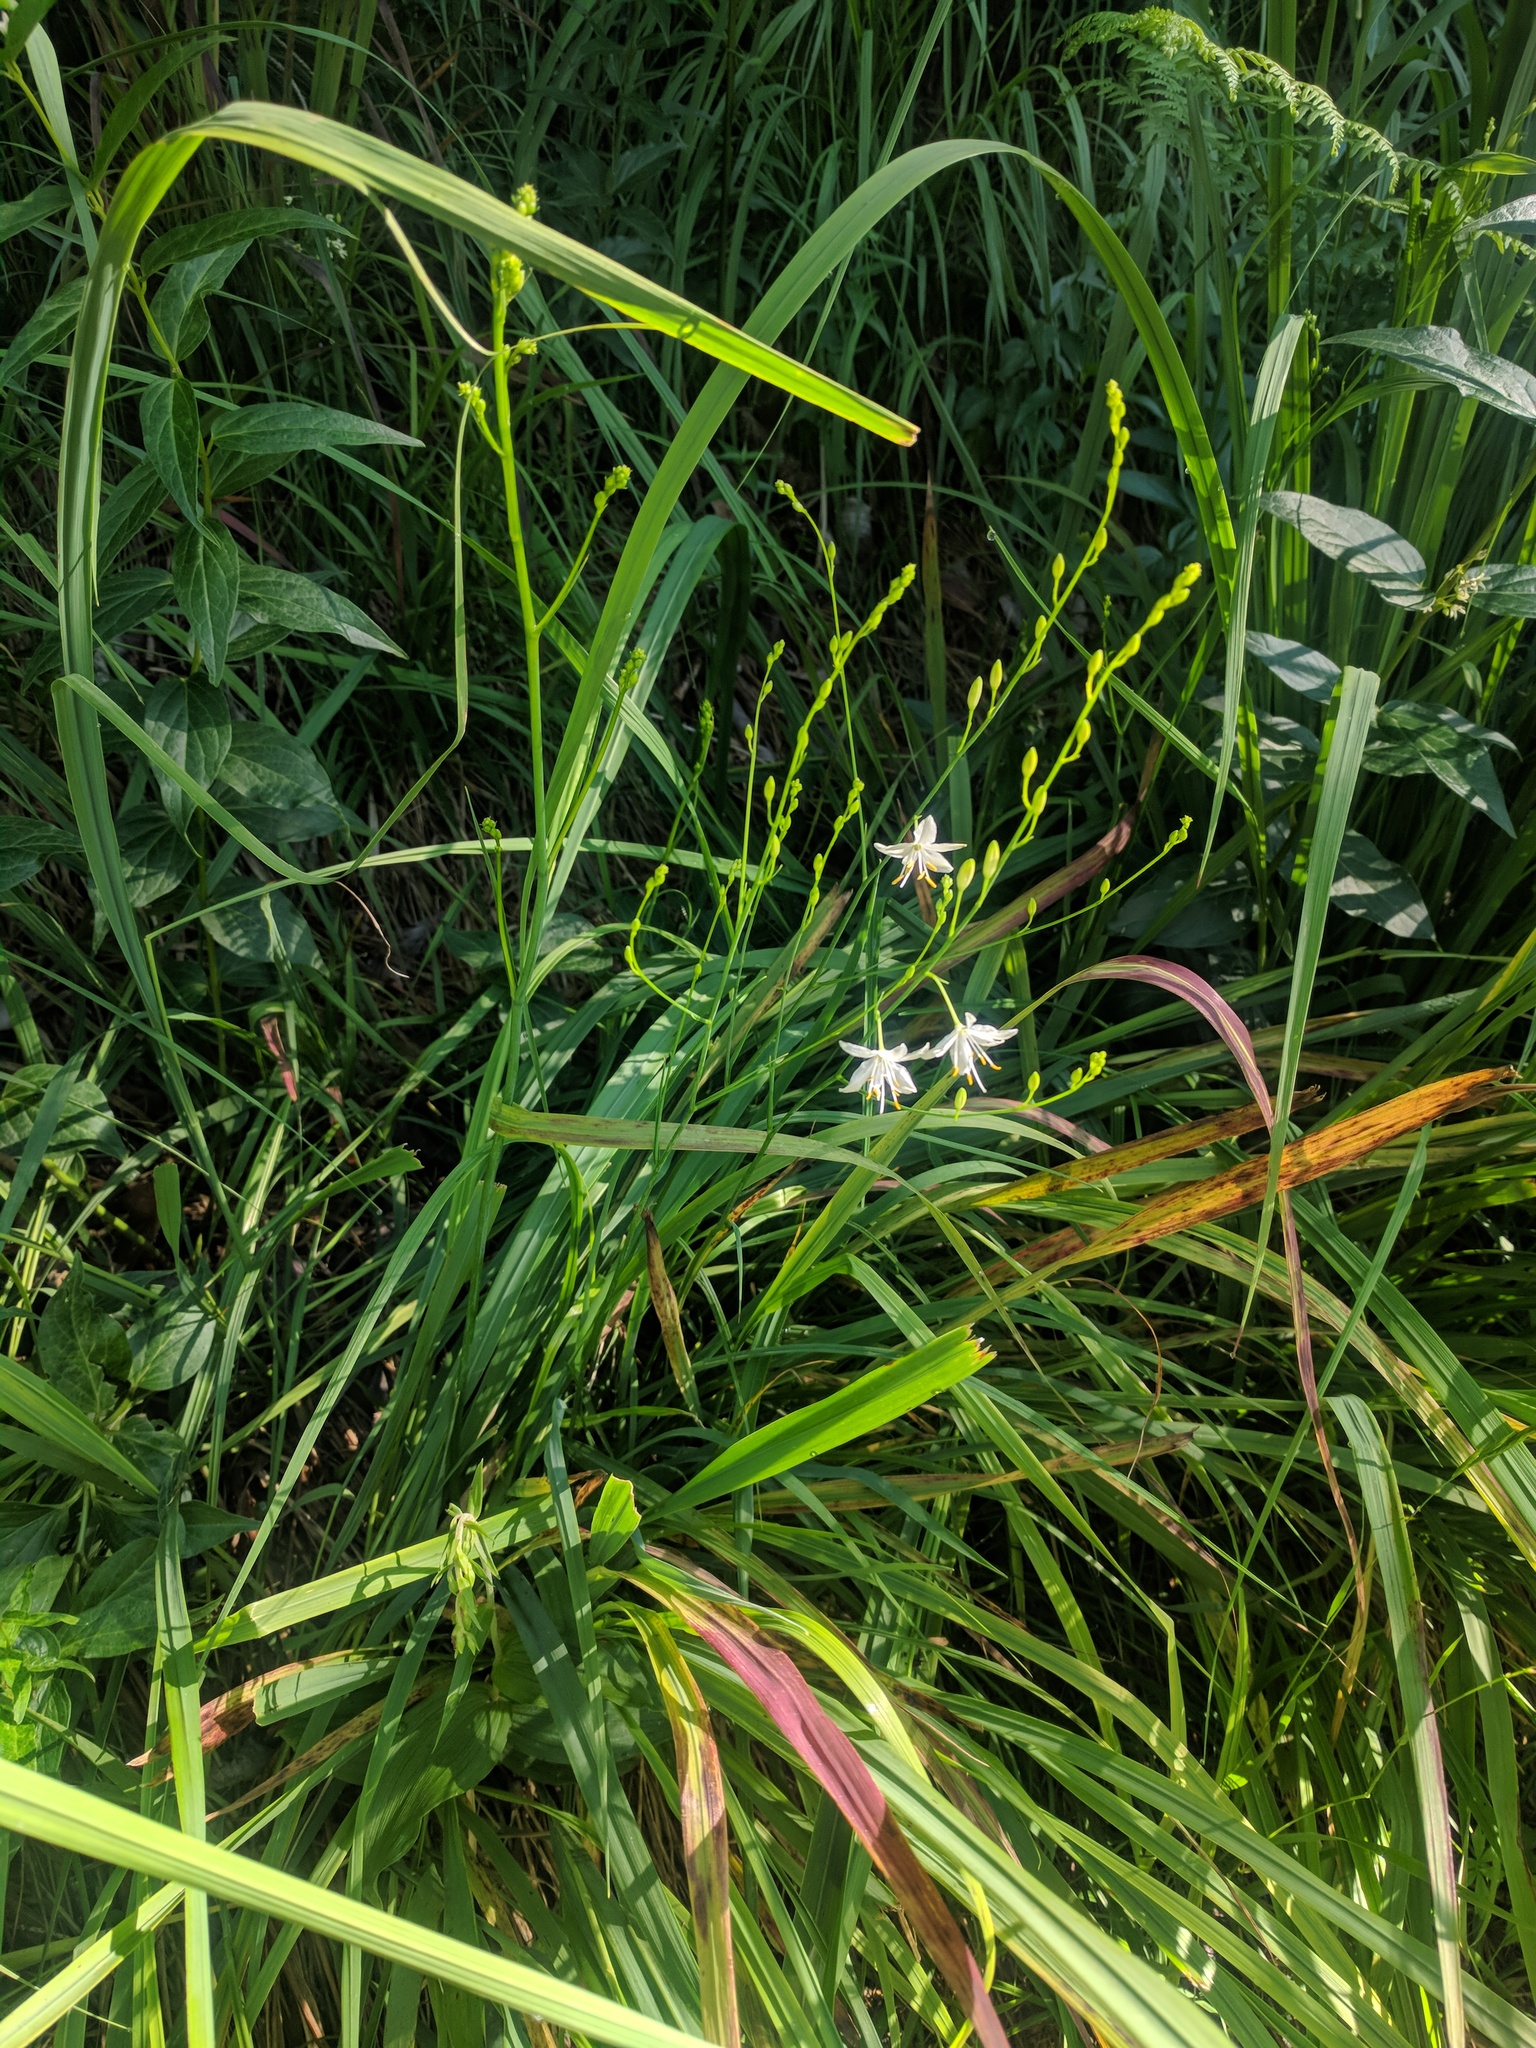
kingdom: Plantae
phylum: Tracheophyta
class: Liliopsida
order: Asparagales
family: Asparagaceae
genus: Anthericum
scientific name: Anthericum ramosum
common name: Branched st. bernard's-lily
